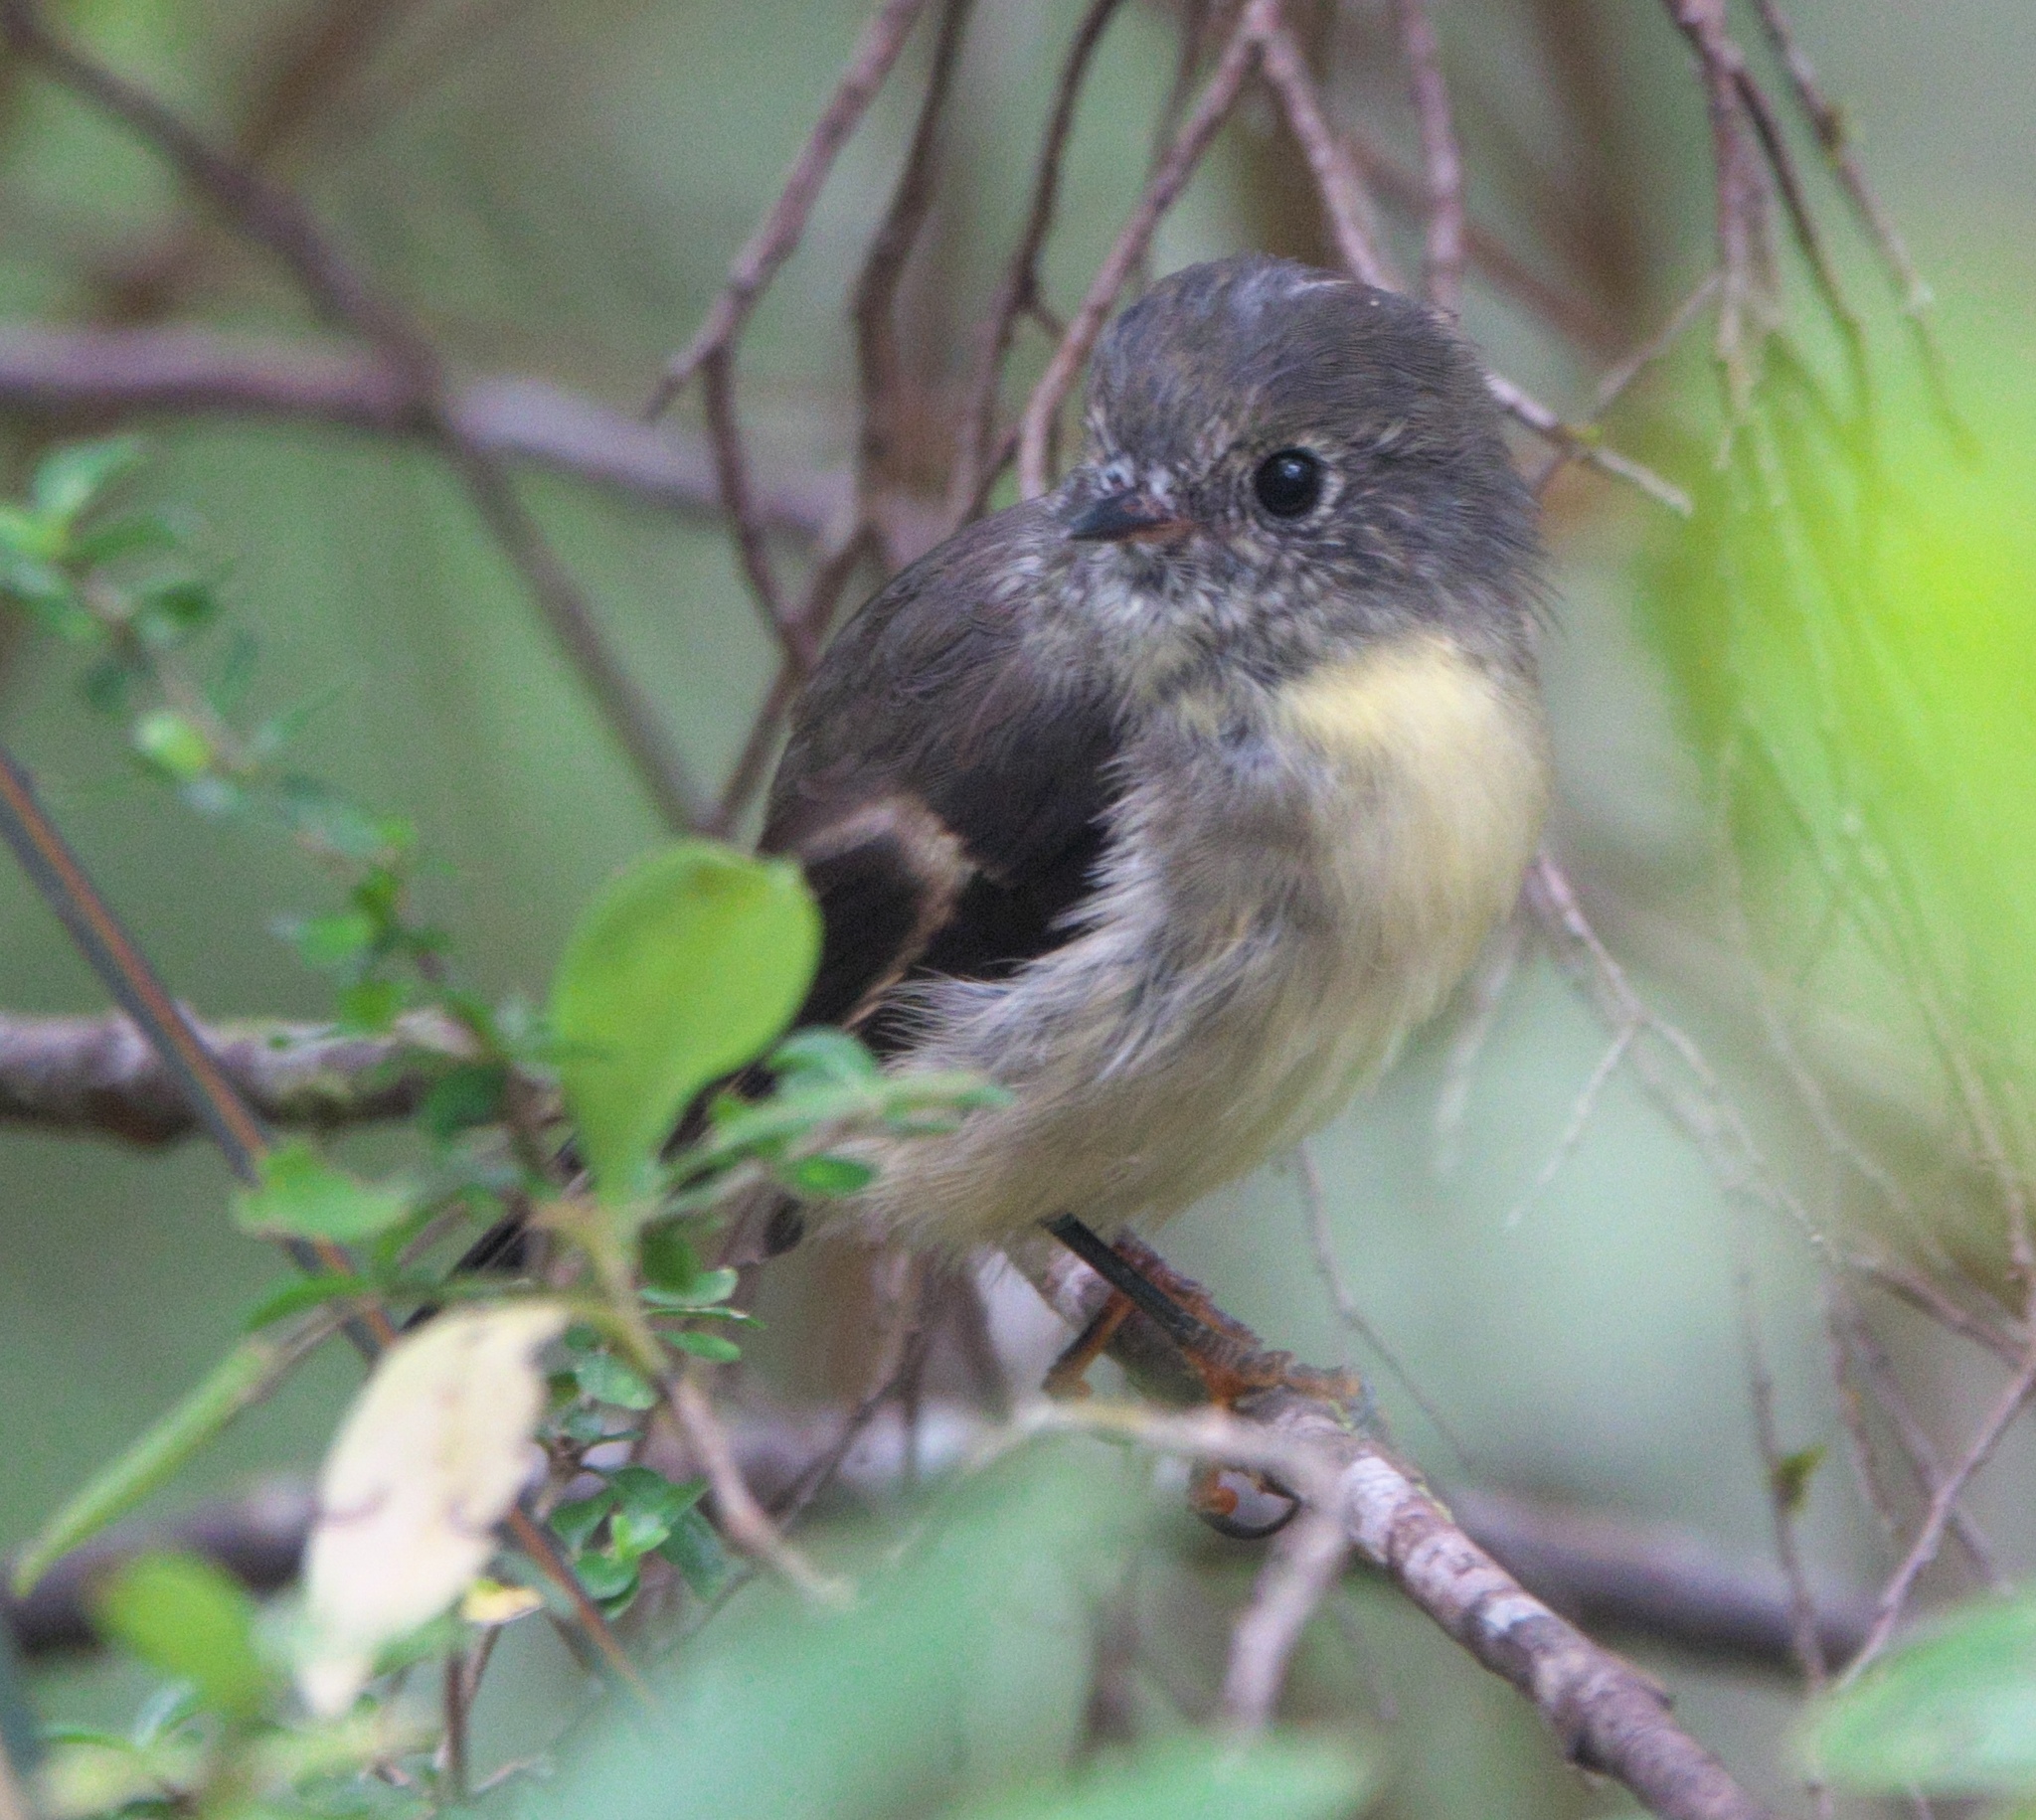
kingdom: Animalia
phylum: Chordata
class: Aves
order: Passeriformes
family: Petroicidae
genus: Petroica
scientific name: Petroica macrocephala
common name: Tomtit
